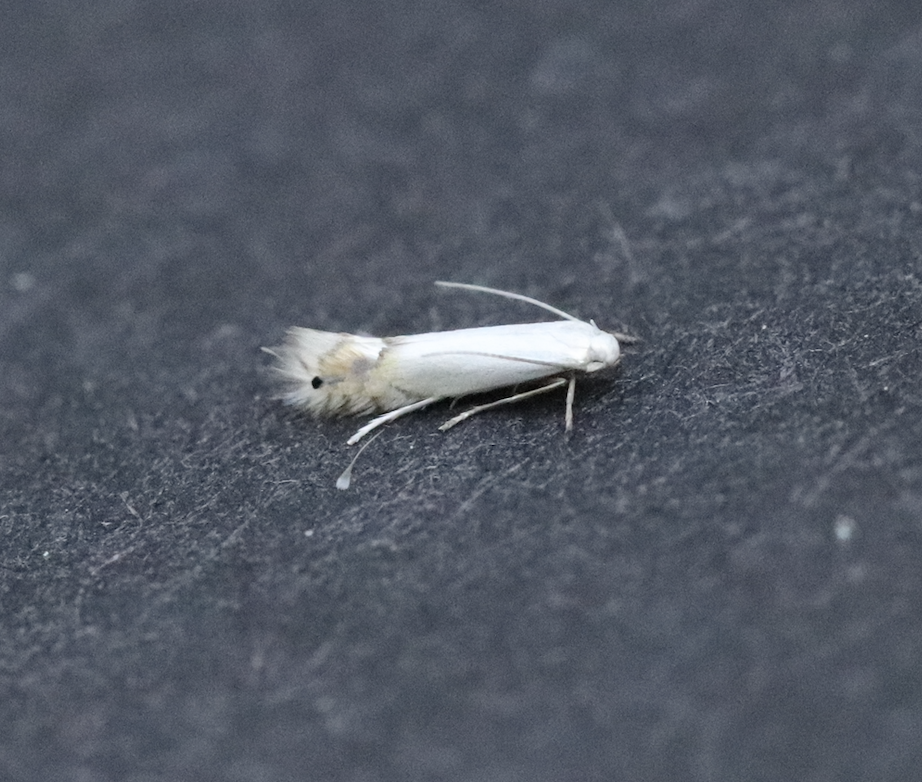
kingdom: Animalia
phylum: Arthropoda
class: Insecta
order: Lepidoptera
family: Gracillariidae
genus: Phyllocnistis
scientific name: Phyllocnistis populiella
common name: Aspen serpentine leafminer moth
